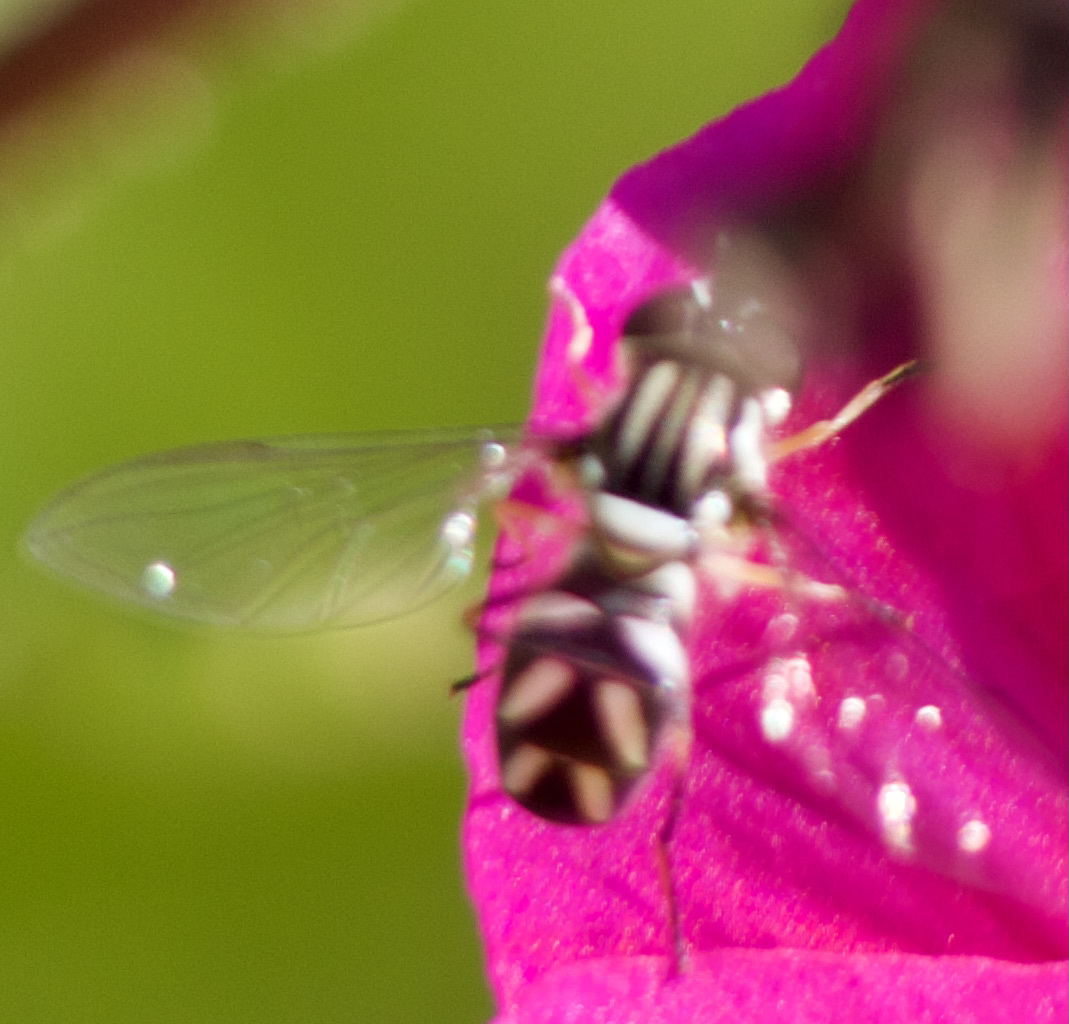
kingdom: Animalia
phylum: Arthropoda
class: Insecta
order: Diptera
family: Syrphidae
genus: Allograpta
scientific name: Allograpta piurana
